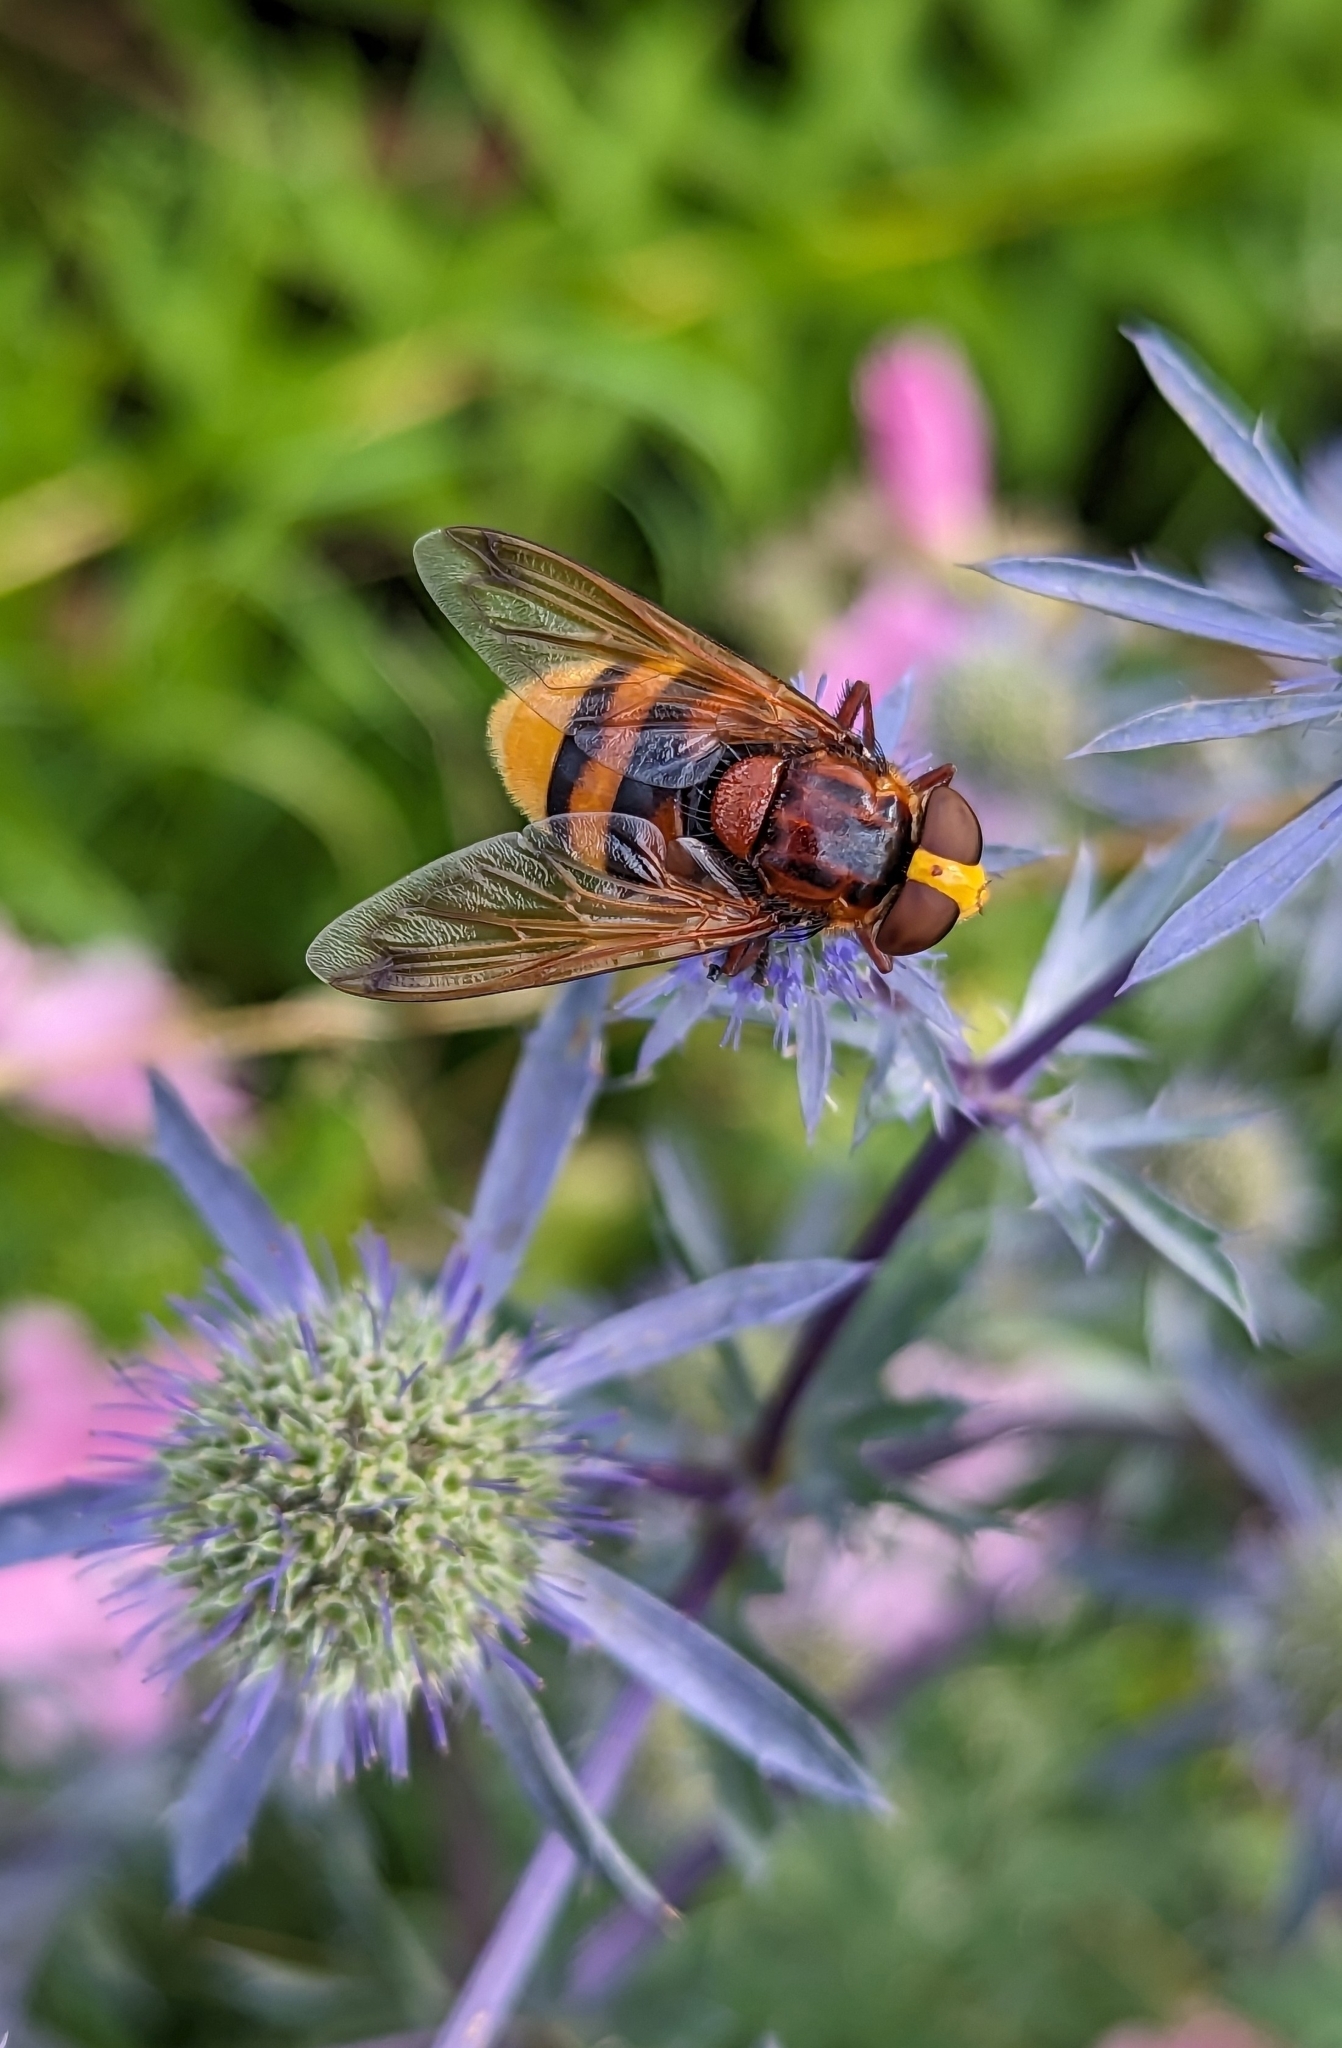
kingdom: Animalia
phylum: Arthropoda
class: Insecta
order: Diptera
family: Syrphidae
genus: Volucella
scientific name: Volucella zonaria
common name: Hornet hoverfly
